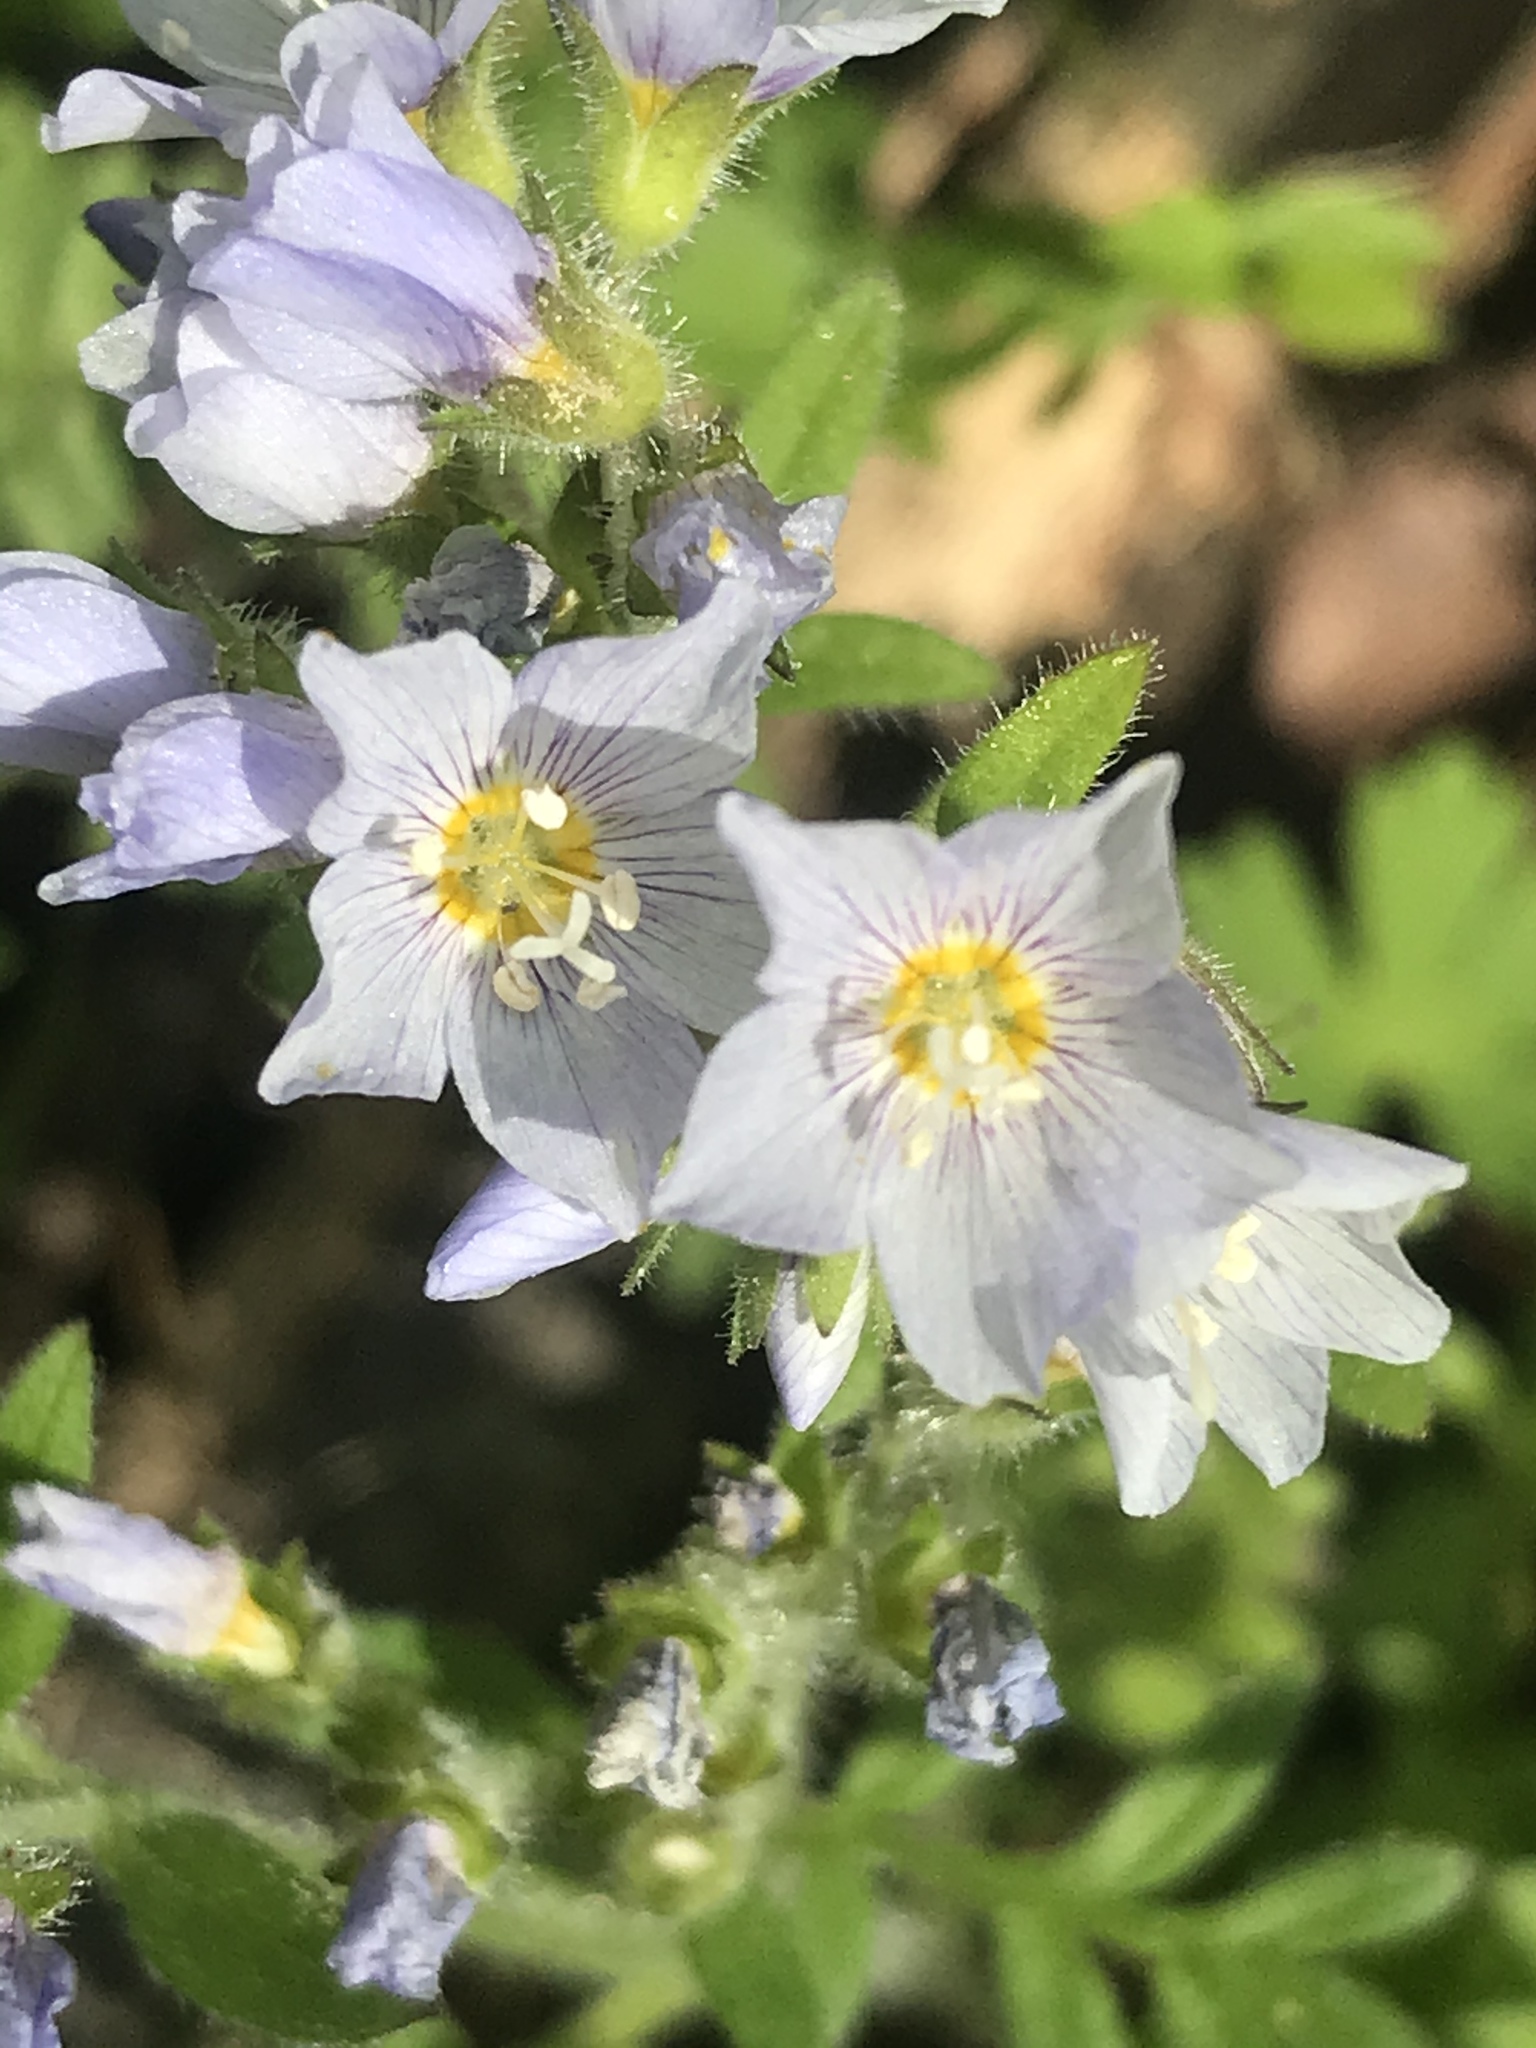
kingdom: Plantae
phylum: Tracheophyta
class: Magnoliopsida
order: Ericales
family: Polemoniaceae
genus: Polemonium
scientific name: Polemonium pulcherrimum
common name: Short jacob's-ladder
